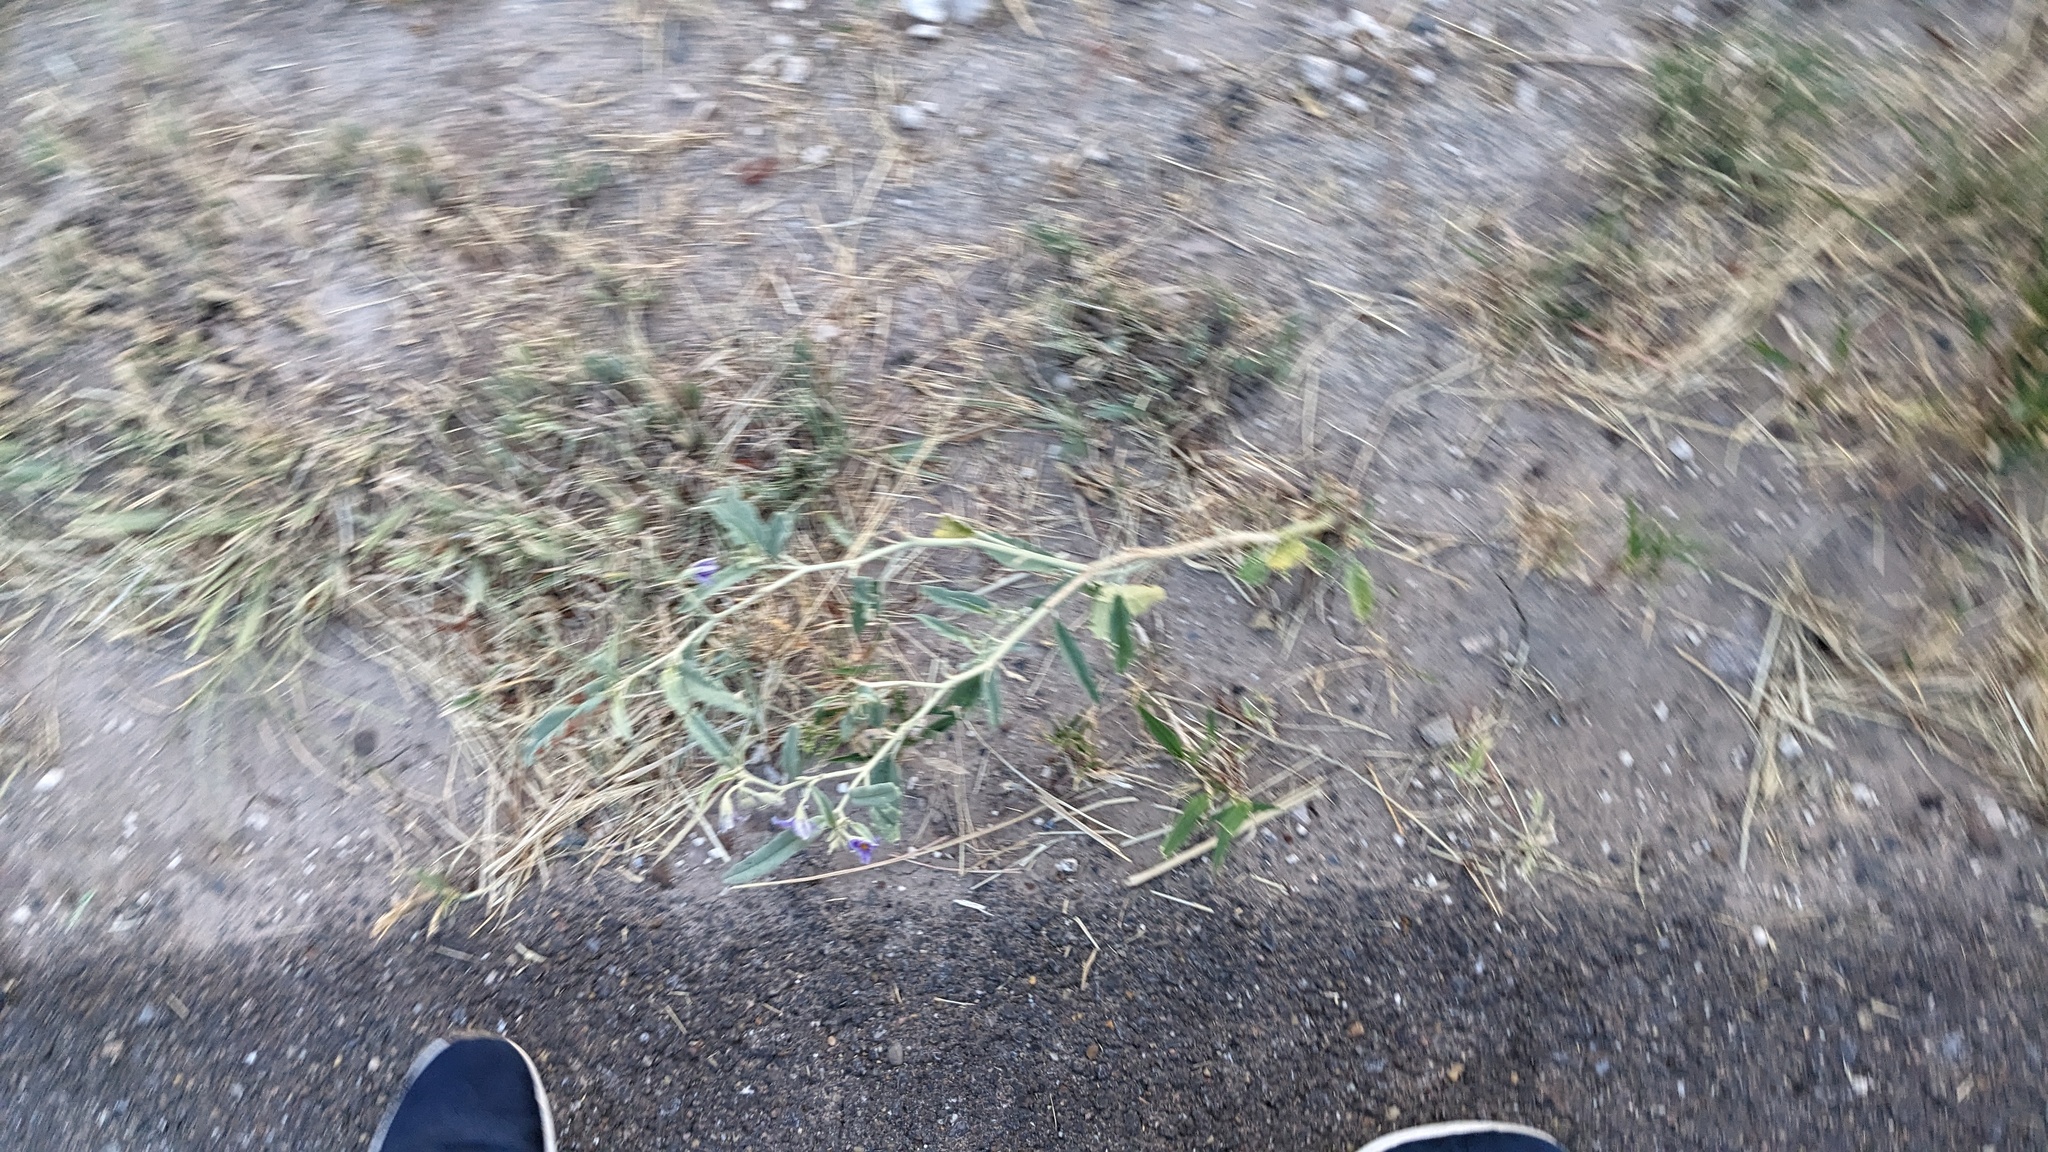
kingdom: Plantae
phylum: Tracheophyta
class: Magnoliopsida
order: Solanales
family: Solanaceae
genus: Solanum
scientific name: Solanum elaeagnifolium
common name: Silverleaf nightshade
